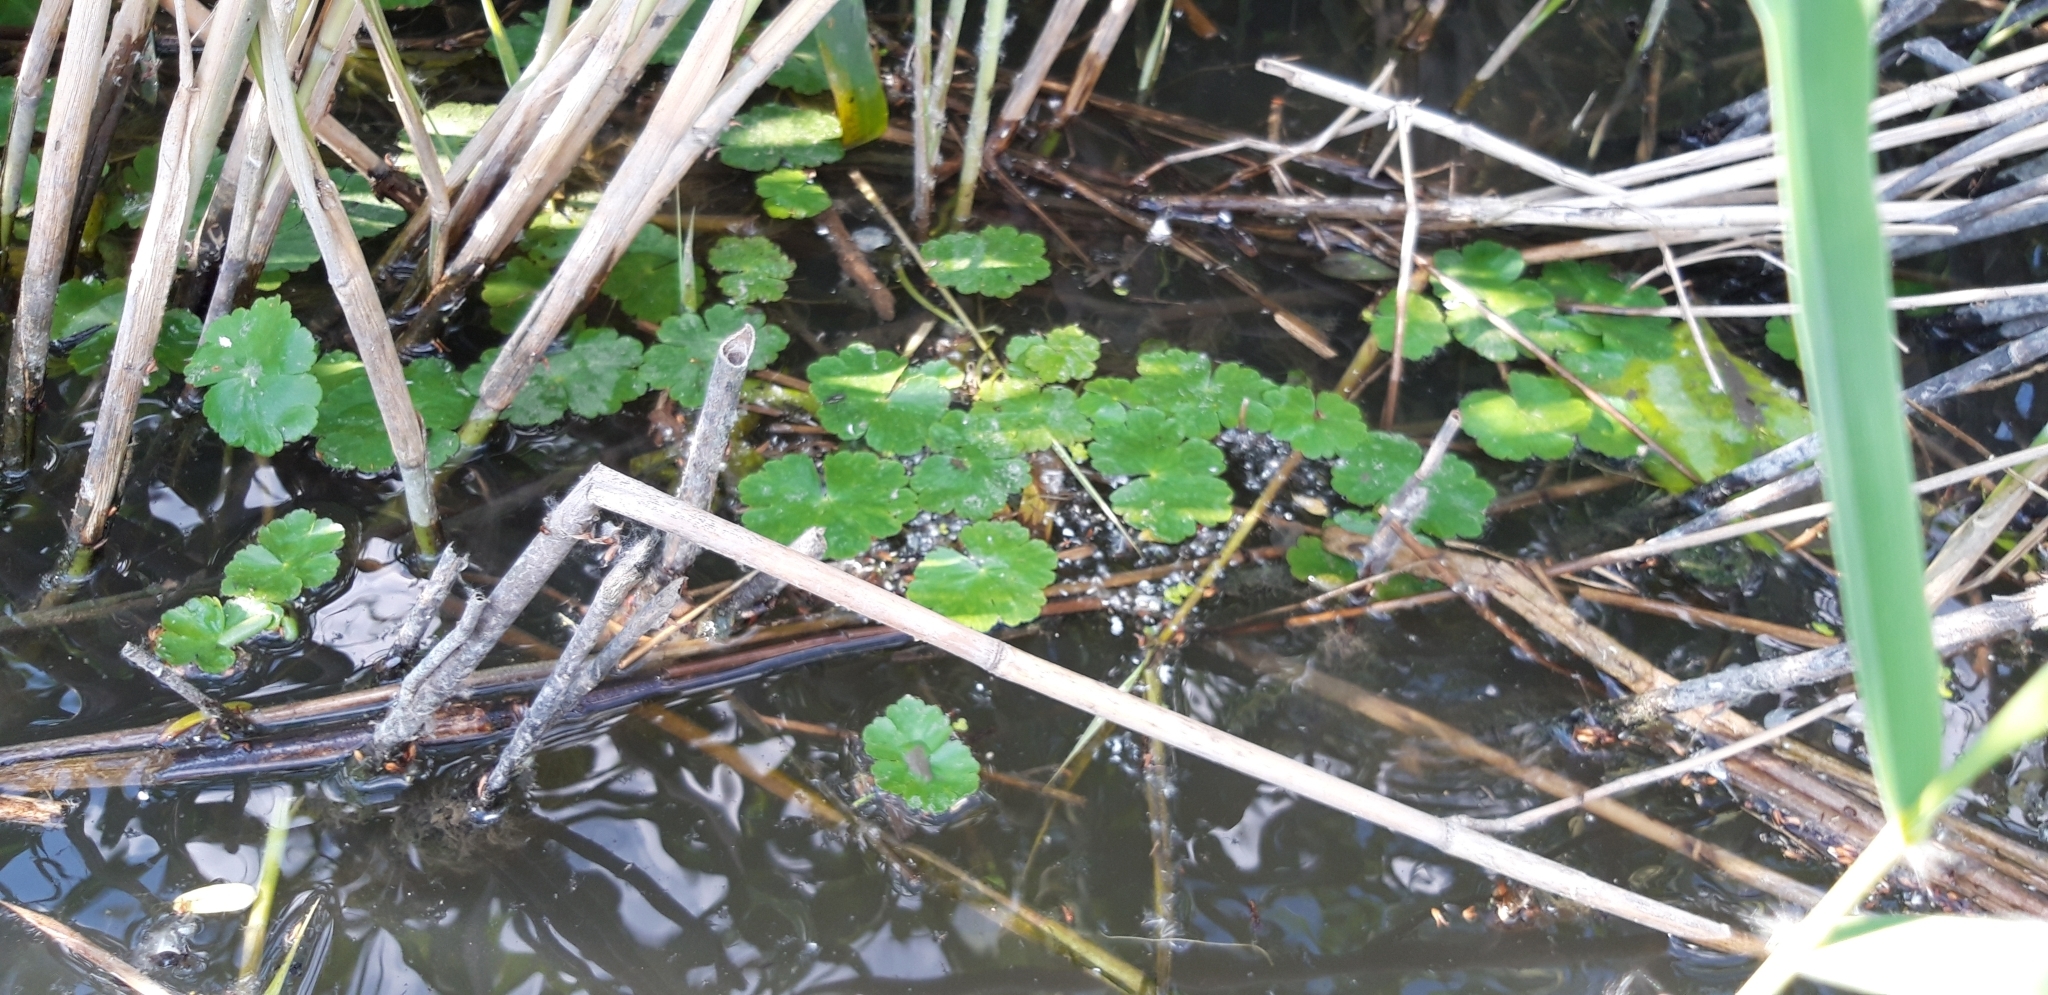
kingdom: Plantae
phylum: Tracheophyta
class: Magnoliopsida
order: Apiales
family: Araliaceae
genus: Hydrocotyle
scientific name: Hydrocotyle ranunculoides
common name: Floating pennywort
